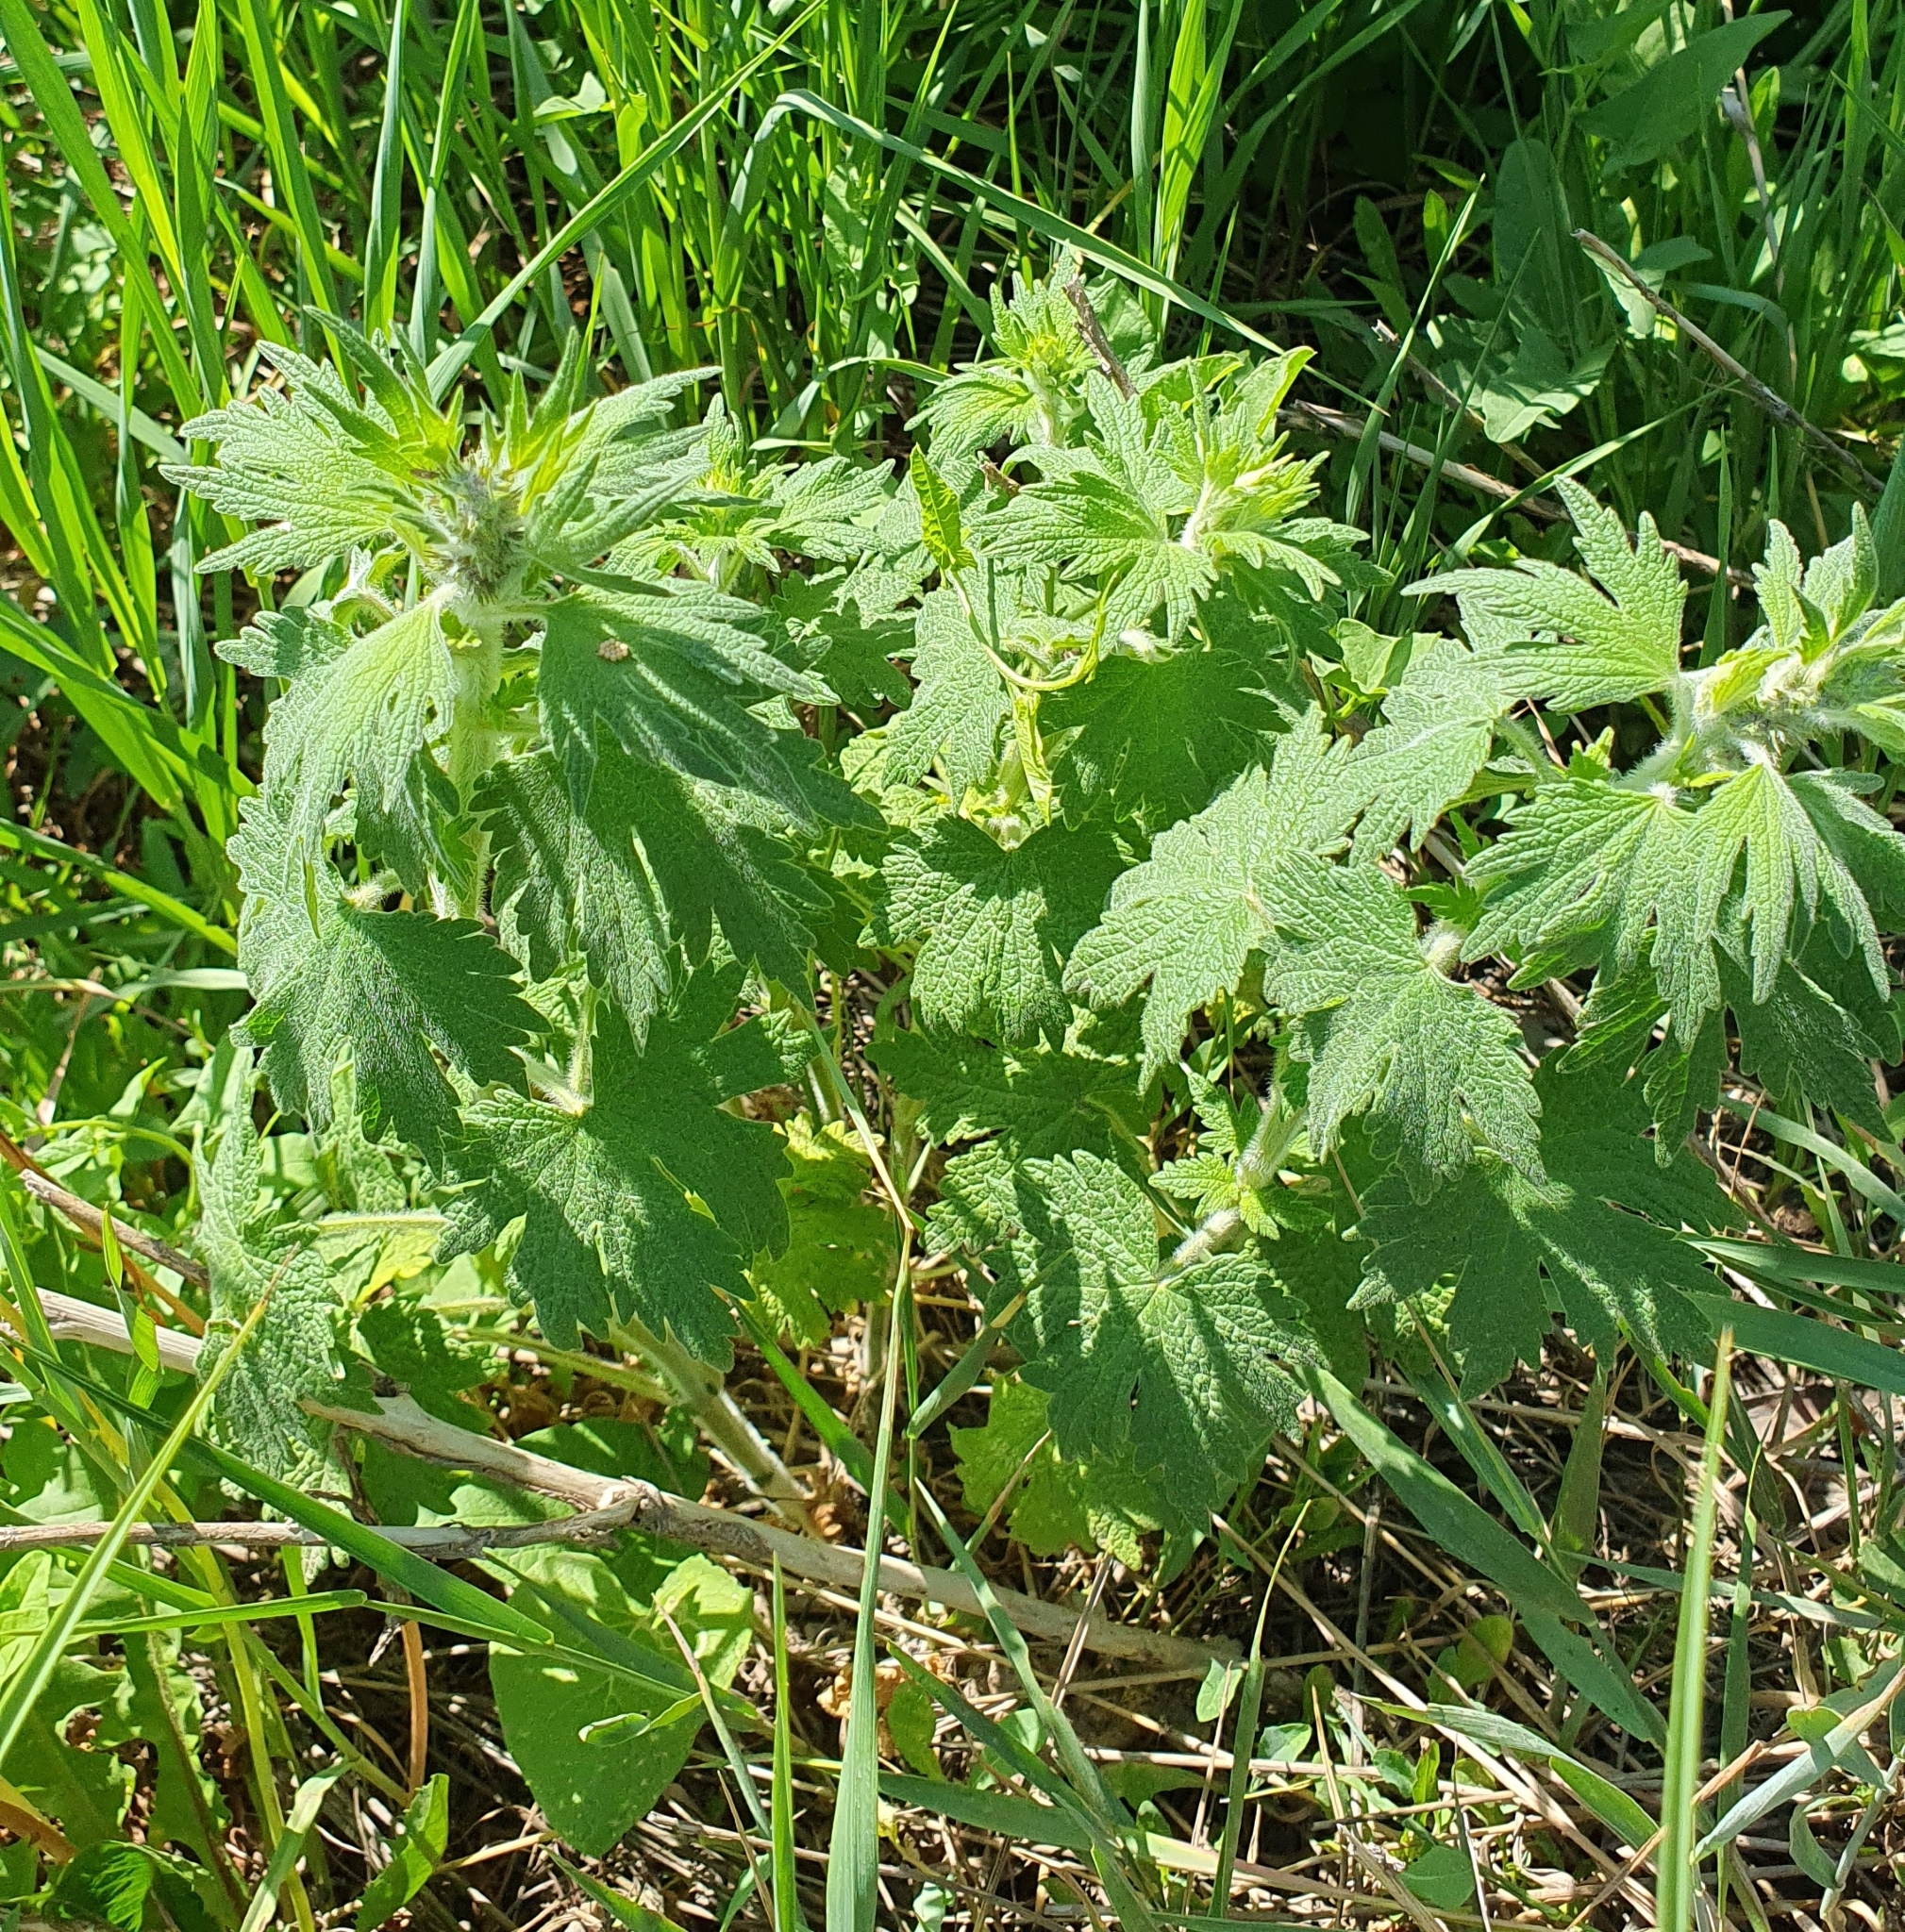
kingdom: Plantae
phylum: Tracheophyta
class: Magnoliopsida
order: Lamiales
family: Lamiaceae
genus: Leonurus
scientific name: Leonurus quinquelobatus
